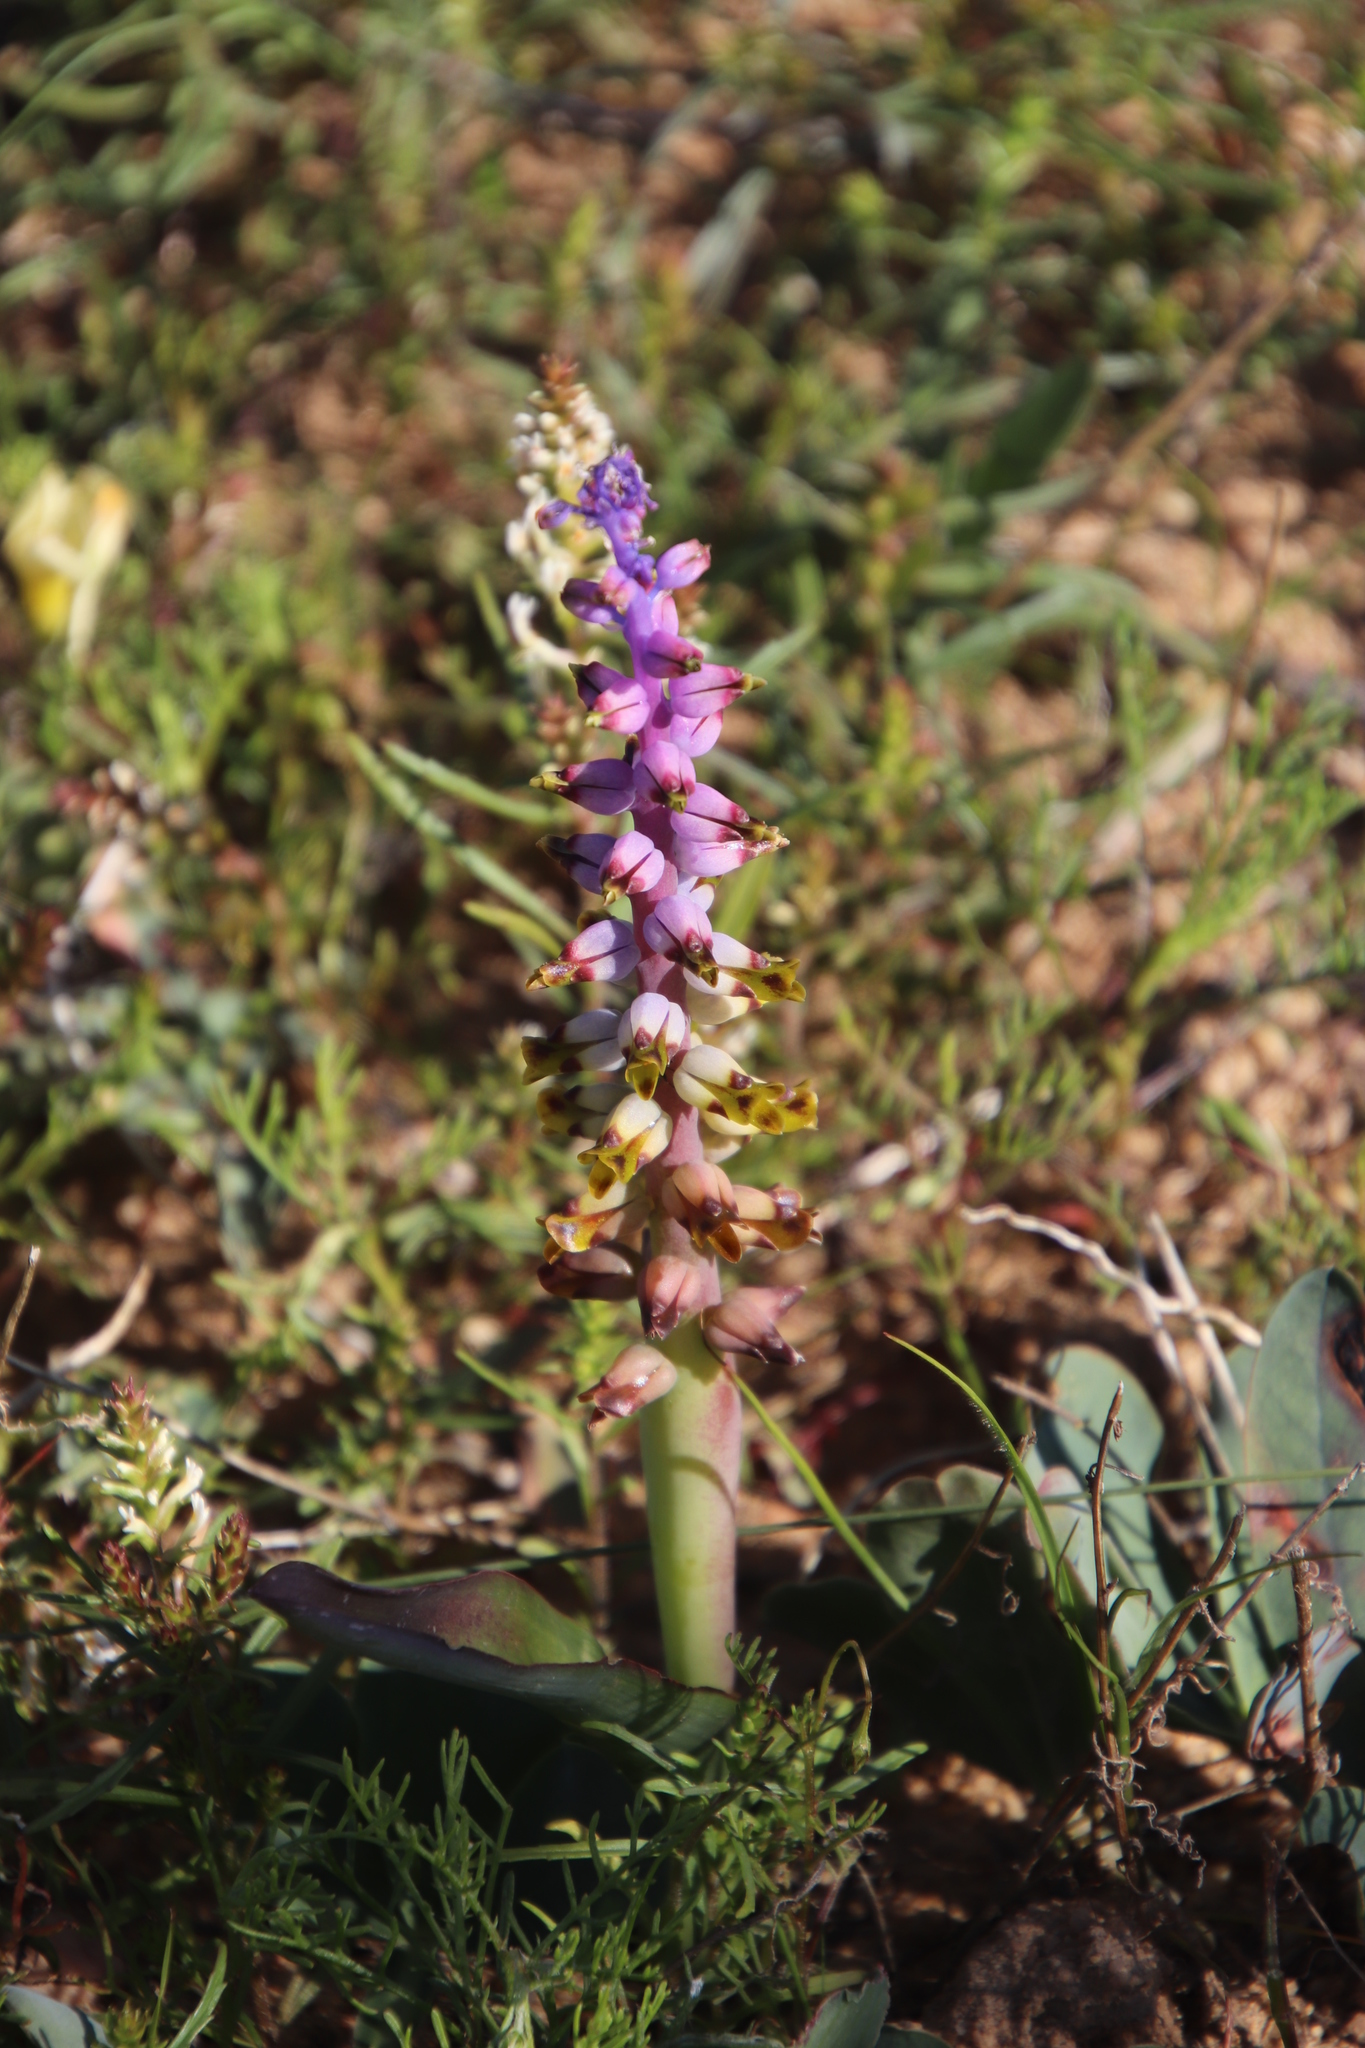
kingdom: Plantae
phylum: Tracheophyta
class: Liliopsida
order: Asparagales
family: Asparagaceae
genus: Lachenalia
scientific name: Lachenalia mutabilis
